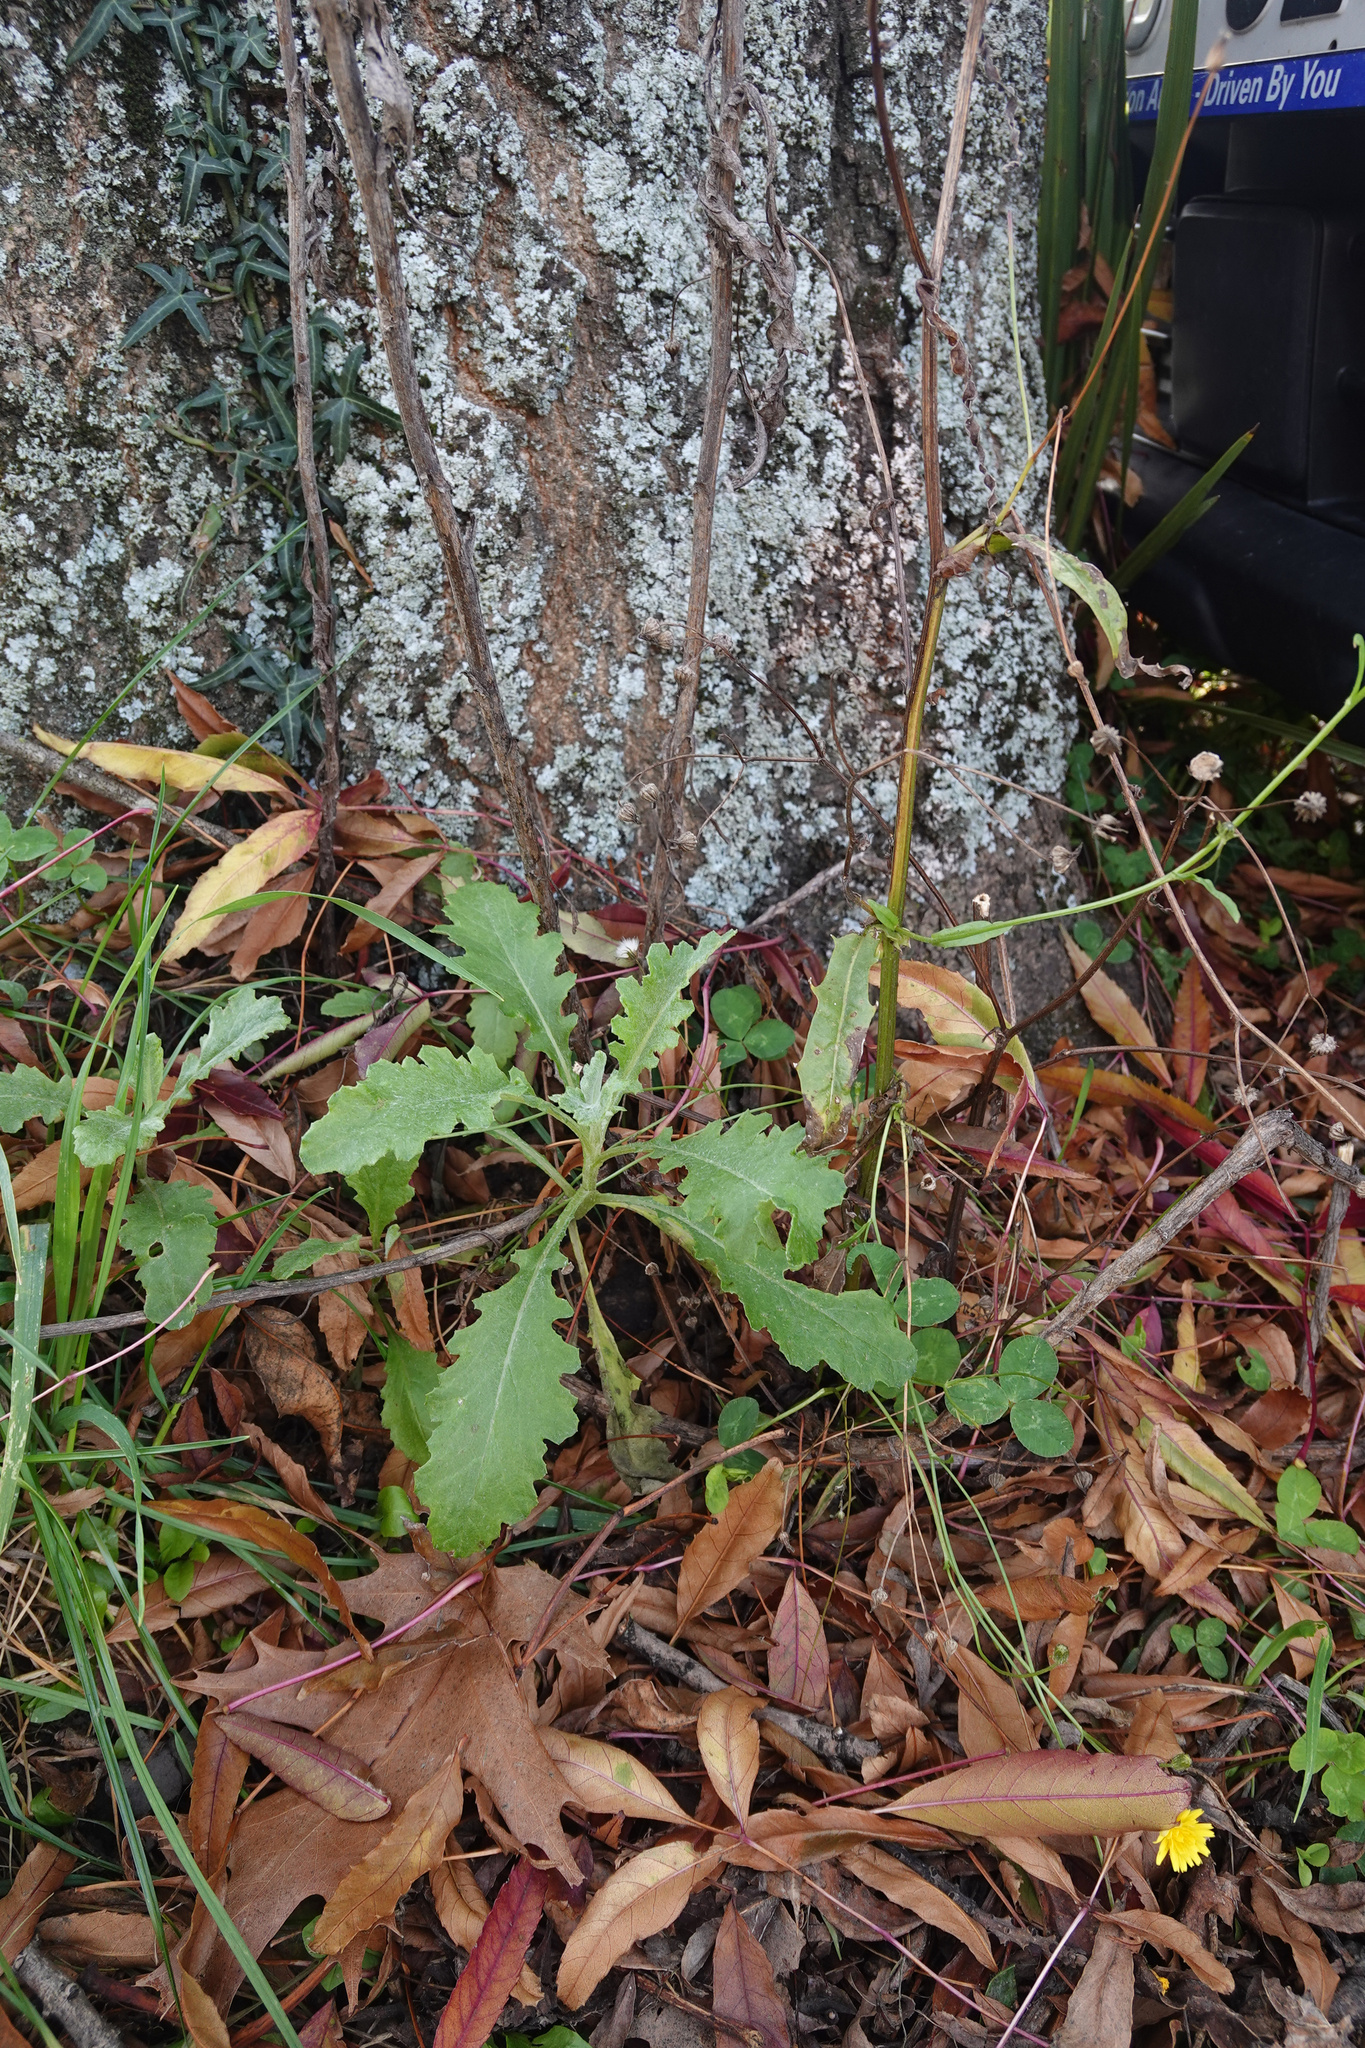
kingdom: Plantae
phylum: Tracheophyta
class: Magnoliopsida
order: Asterales
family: Asteraceae
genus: Senecio
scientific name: Senecio glomeratus
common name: Cutleaf burnweed
